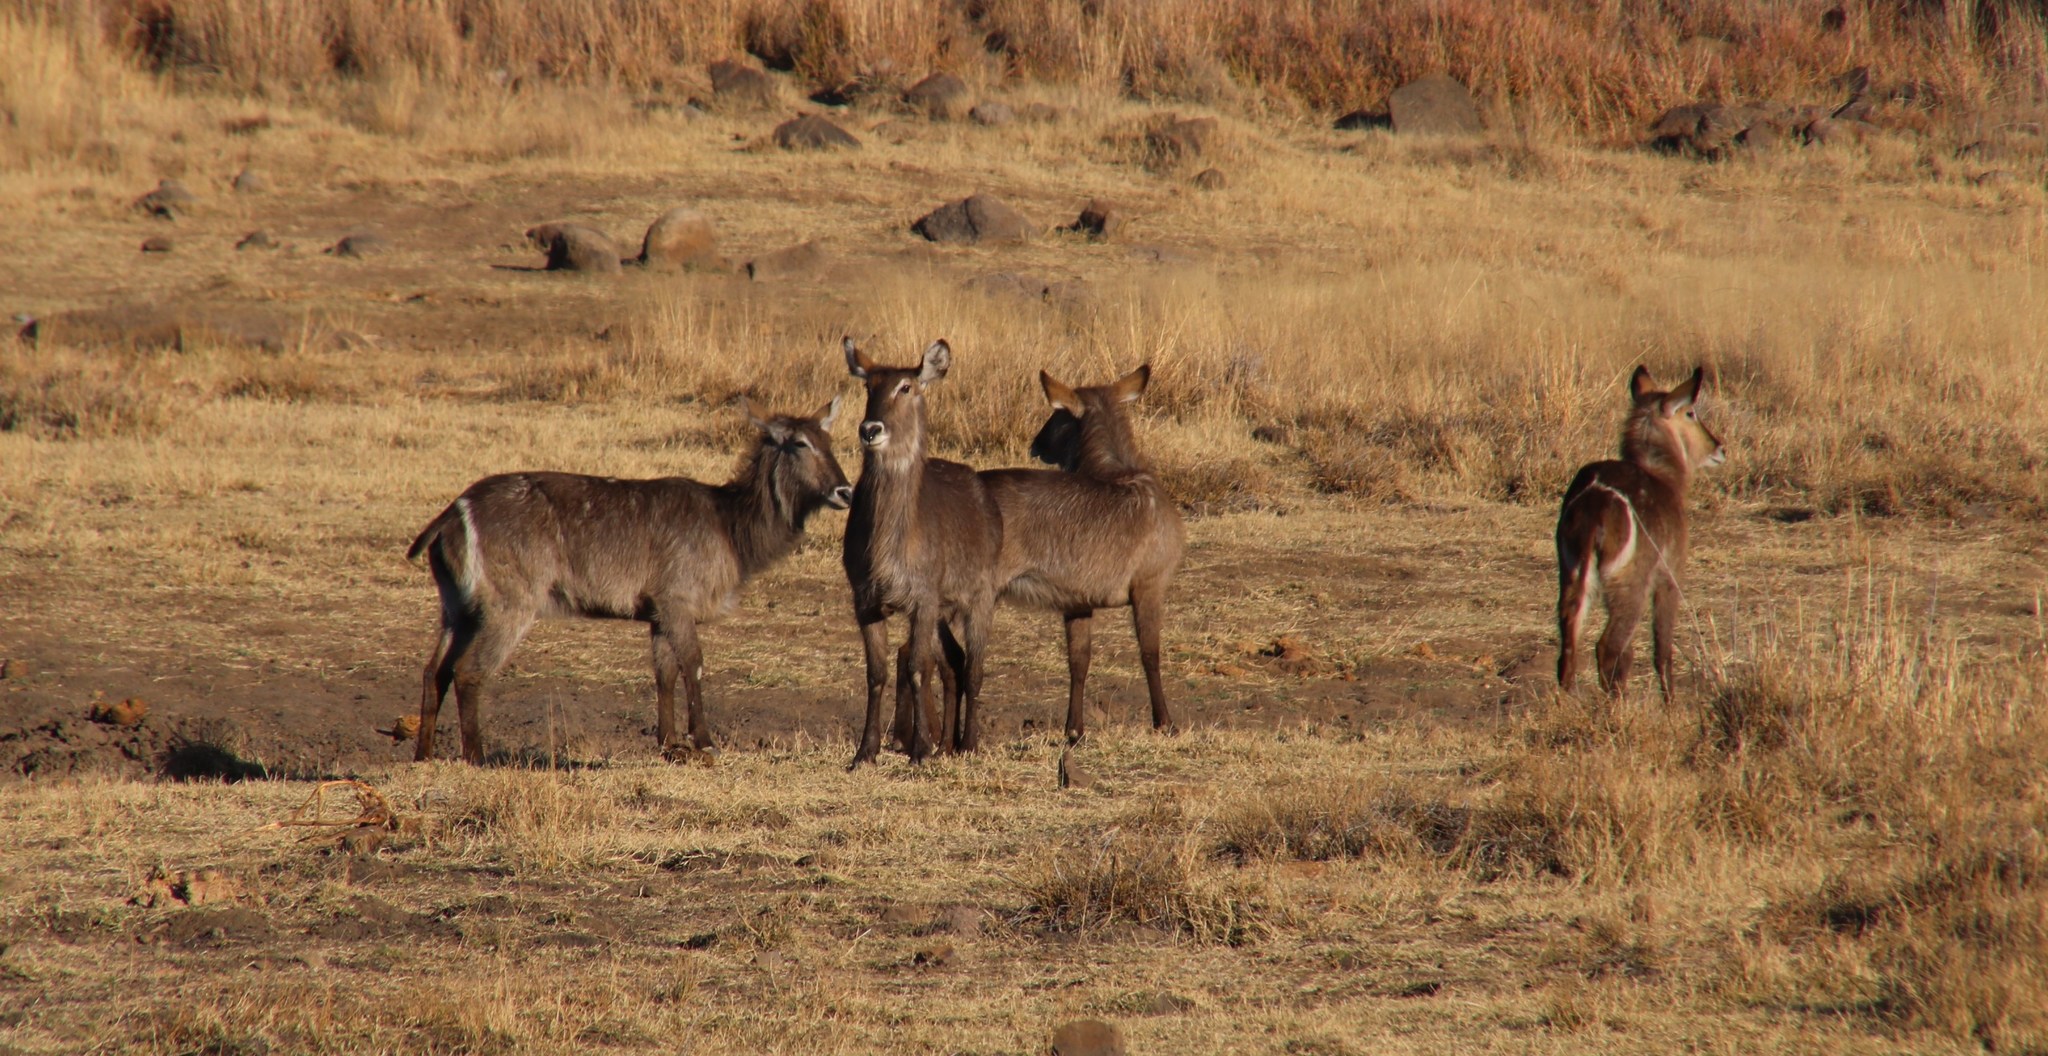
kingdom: Animalia
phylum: Chordata
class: Mammalia
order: Artiodactyla
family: Bovidae
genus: Kobus
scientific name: Kobus ellipsiprymnus
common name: Waterbuck
